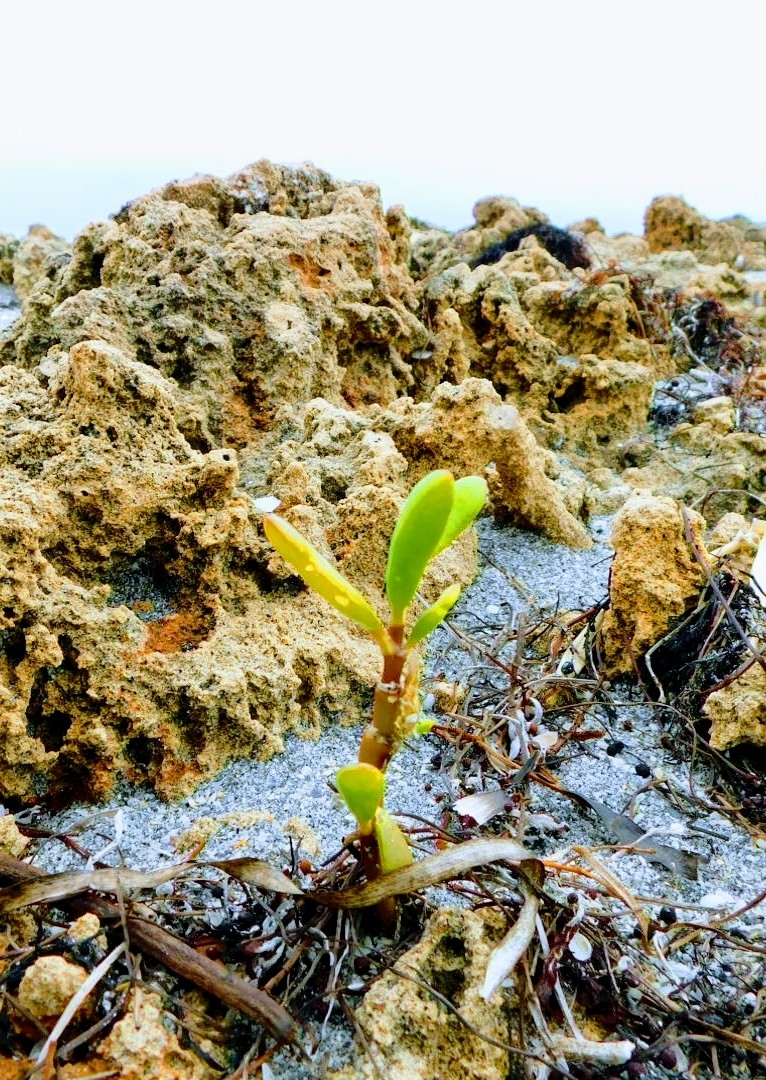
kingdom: Plantae
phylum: Tracheophyta
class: Magnoliopsida
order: Caryophyllales
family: Aizoaceae
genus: Sesuvium
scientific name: Sesuvium portulacastrum
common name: Sea-purslane
